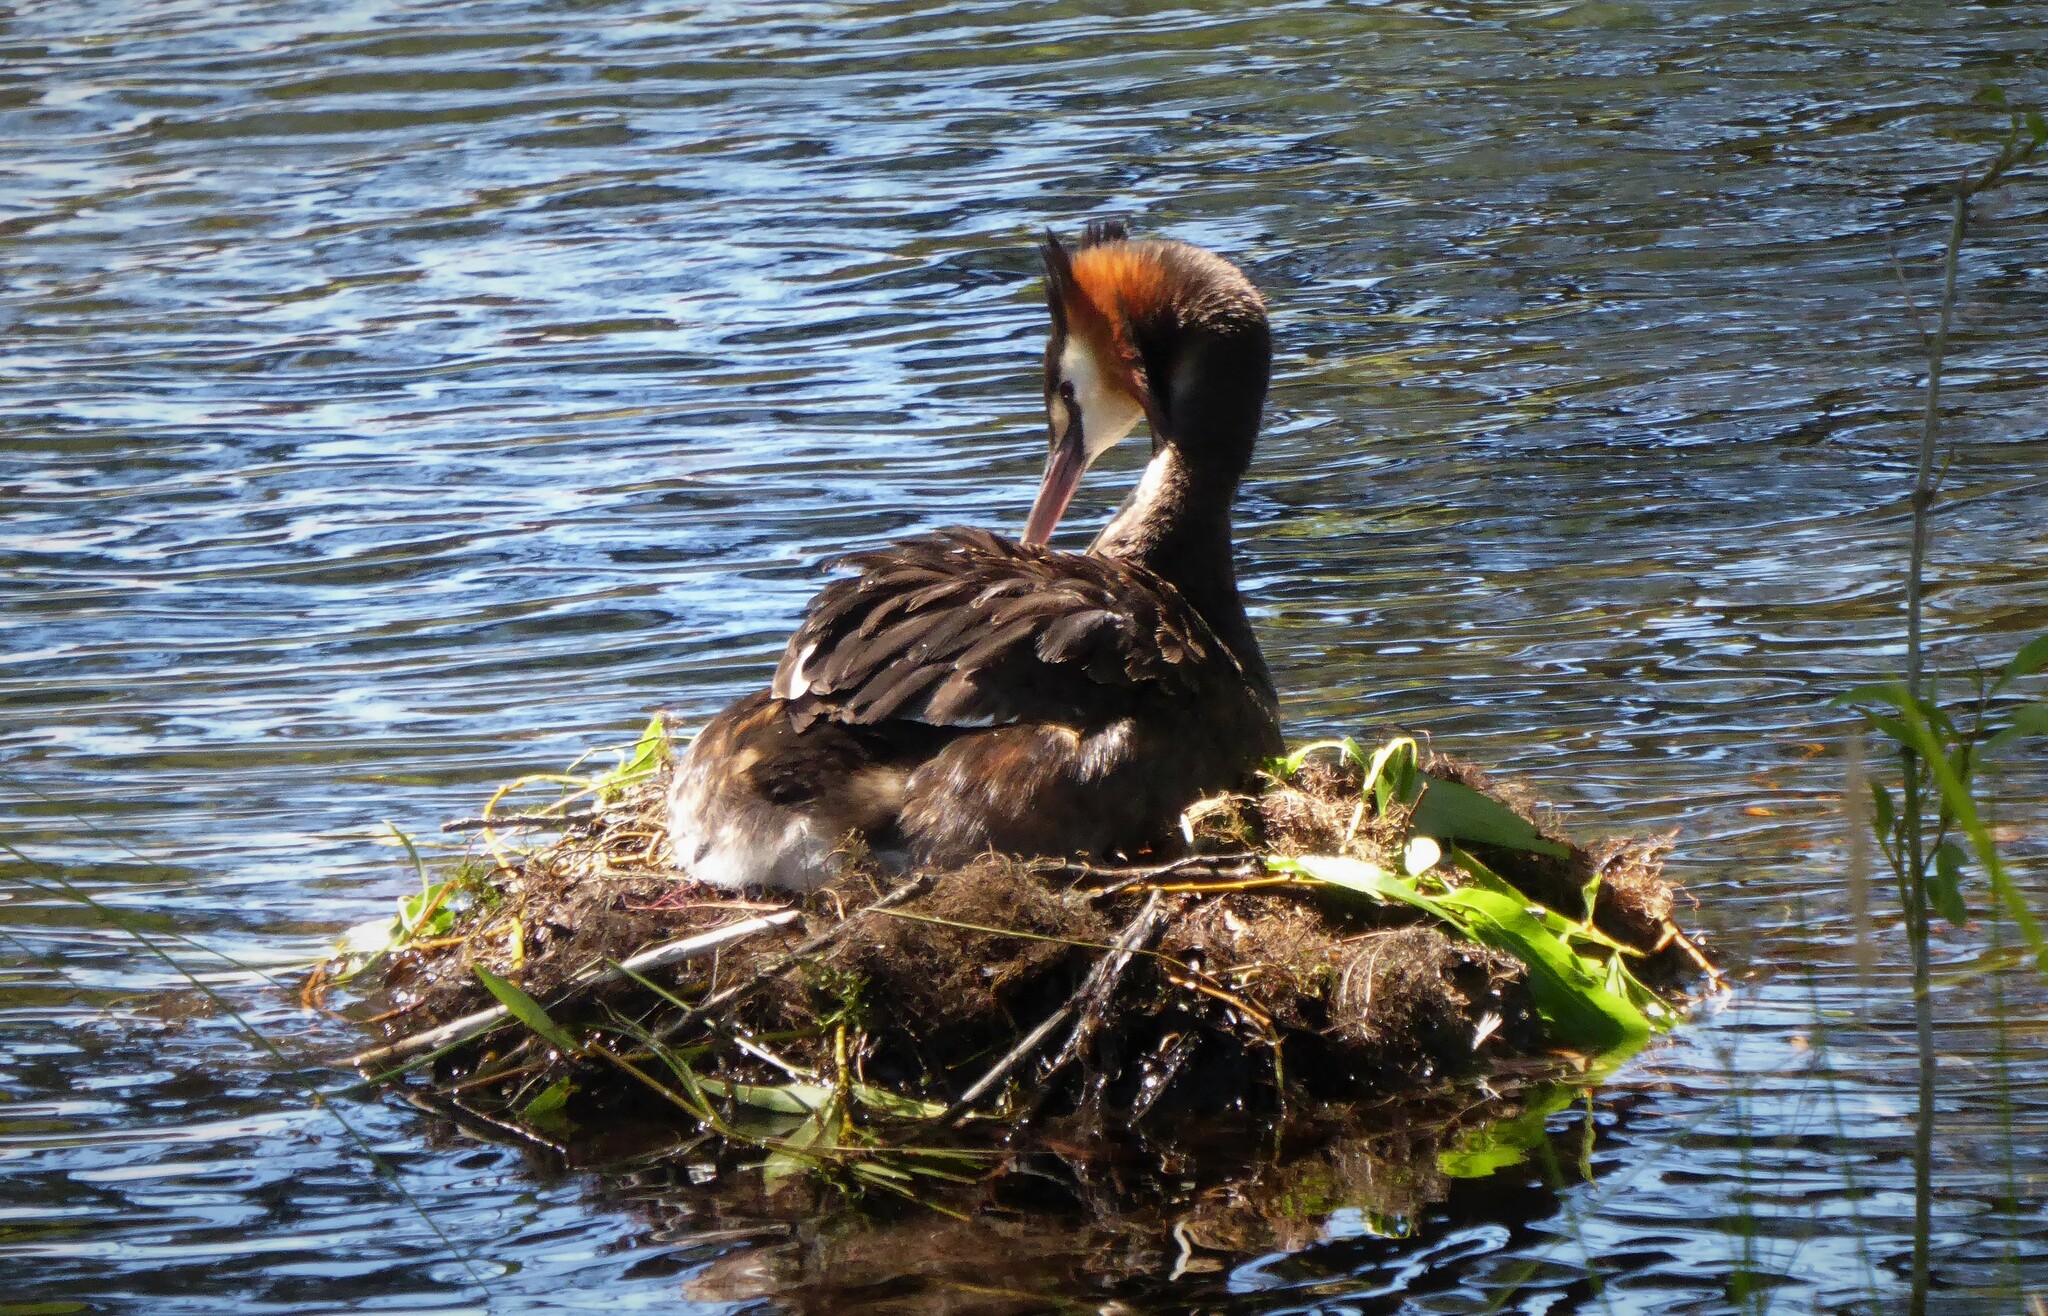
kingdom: Animalia
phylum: Chordata
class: Aves
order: Podicipediformes
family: Podicipedidae
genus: Podiceps
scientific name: Podiceps cristatus
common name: Great crested grebe
